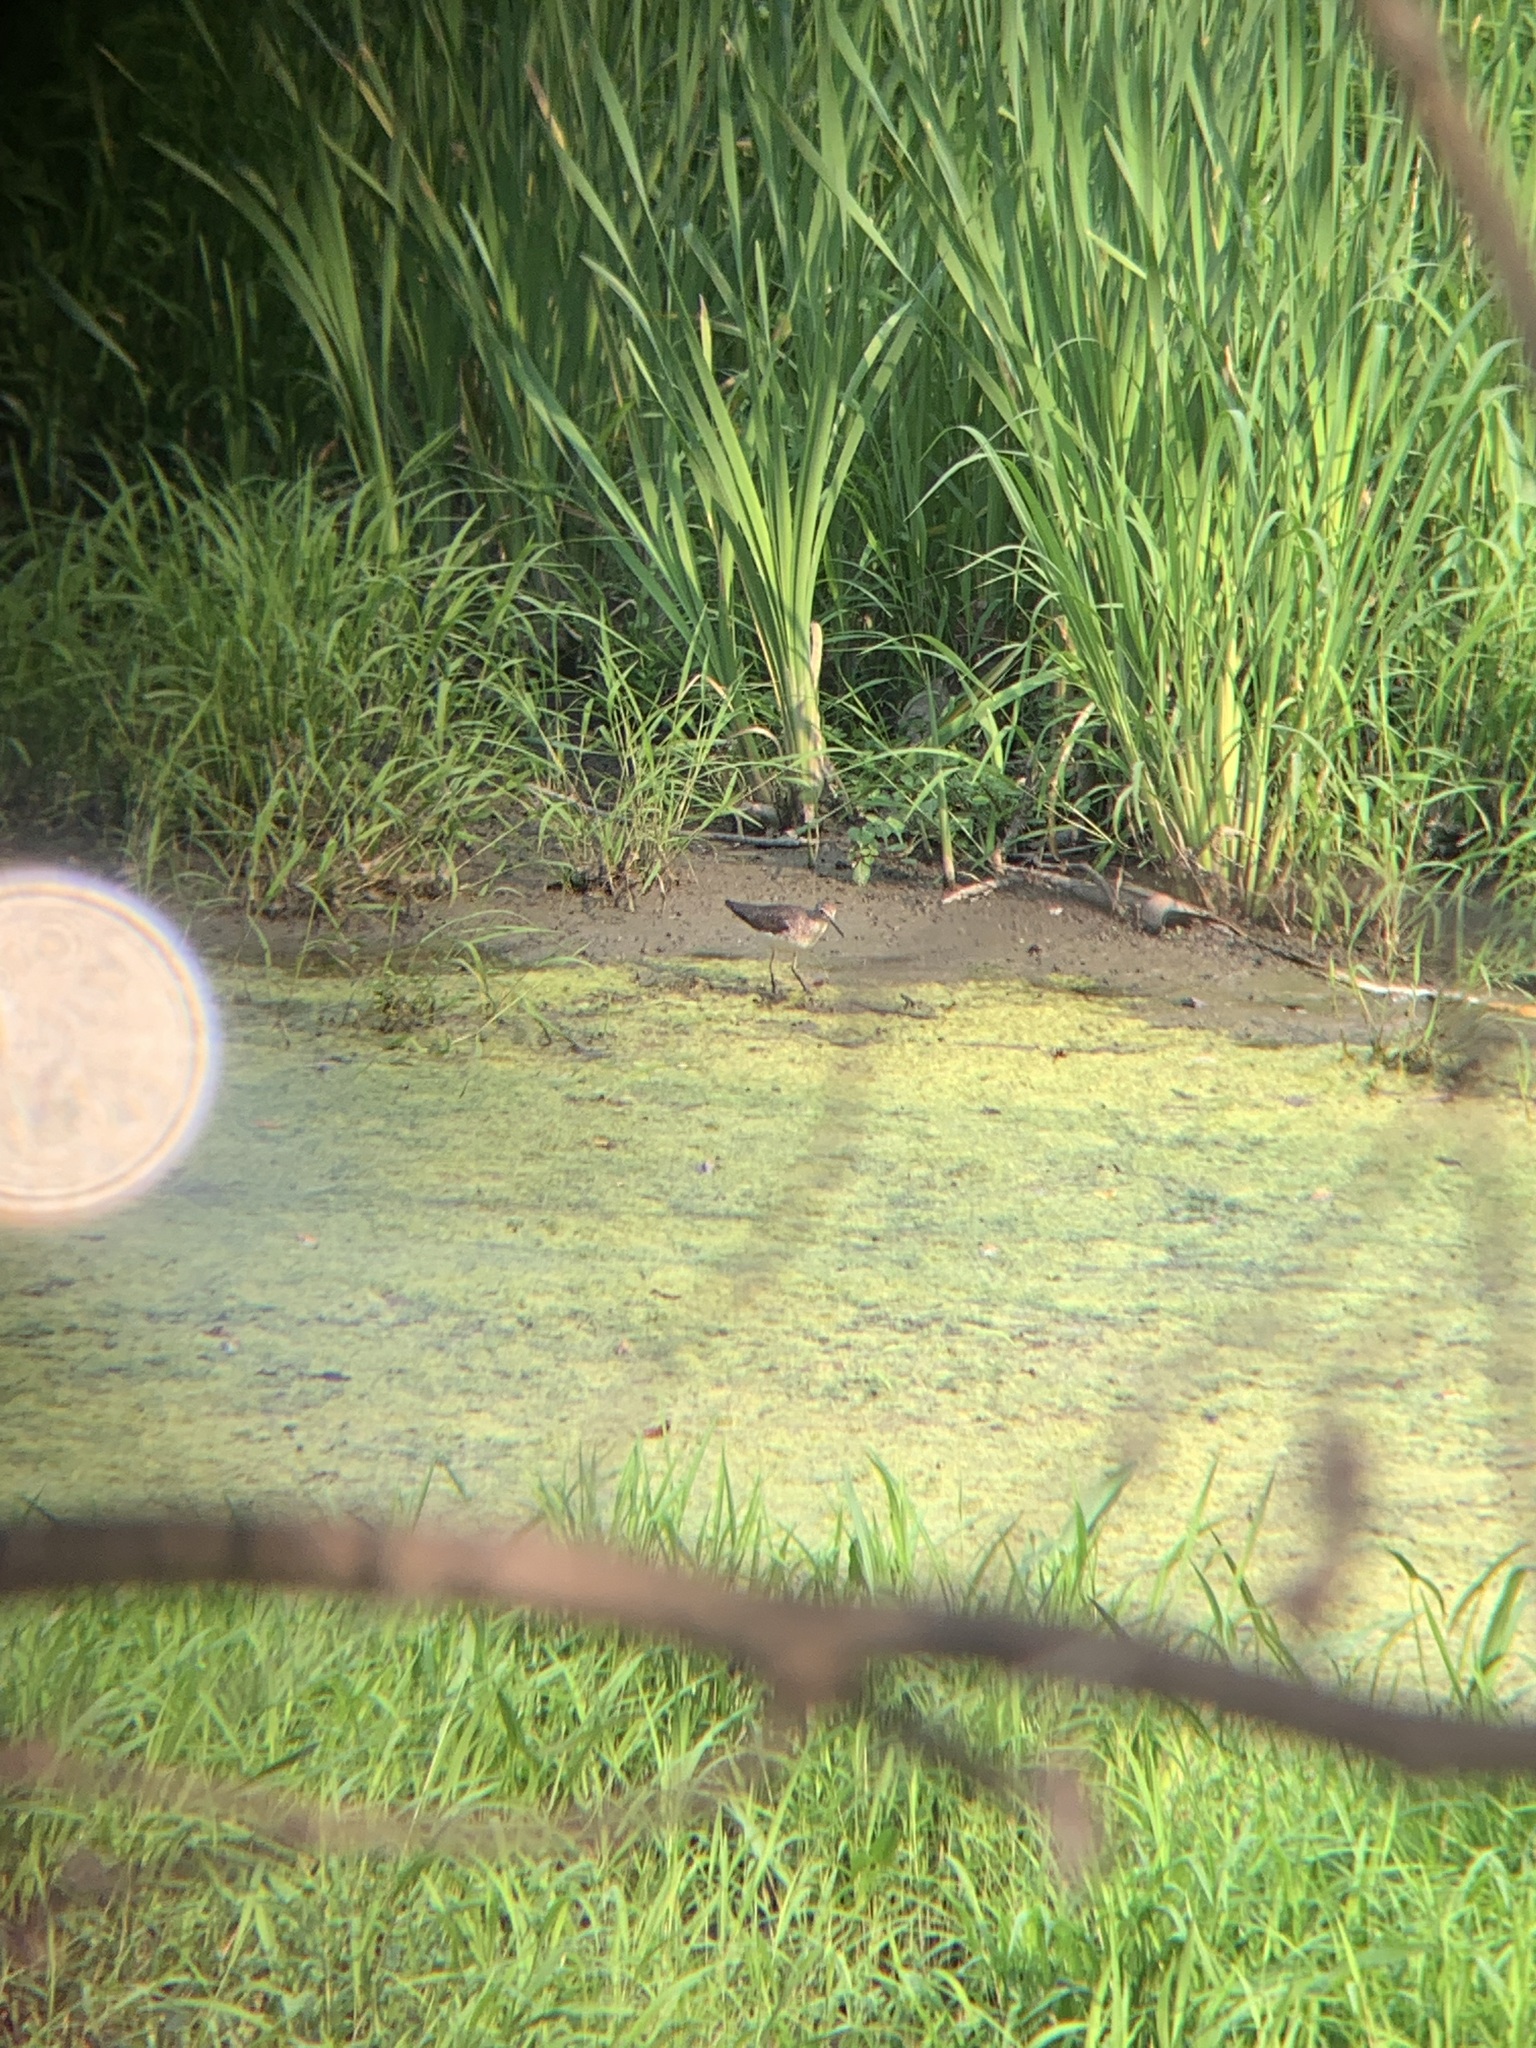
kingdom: Animalia
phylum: Chordata
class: Aves
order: Charadriiformes
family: Scolopacidae
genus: Tringa
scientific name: Tringa solitaria
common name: Solitary sandpiper
